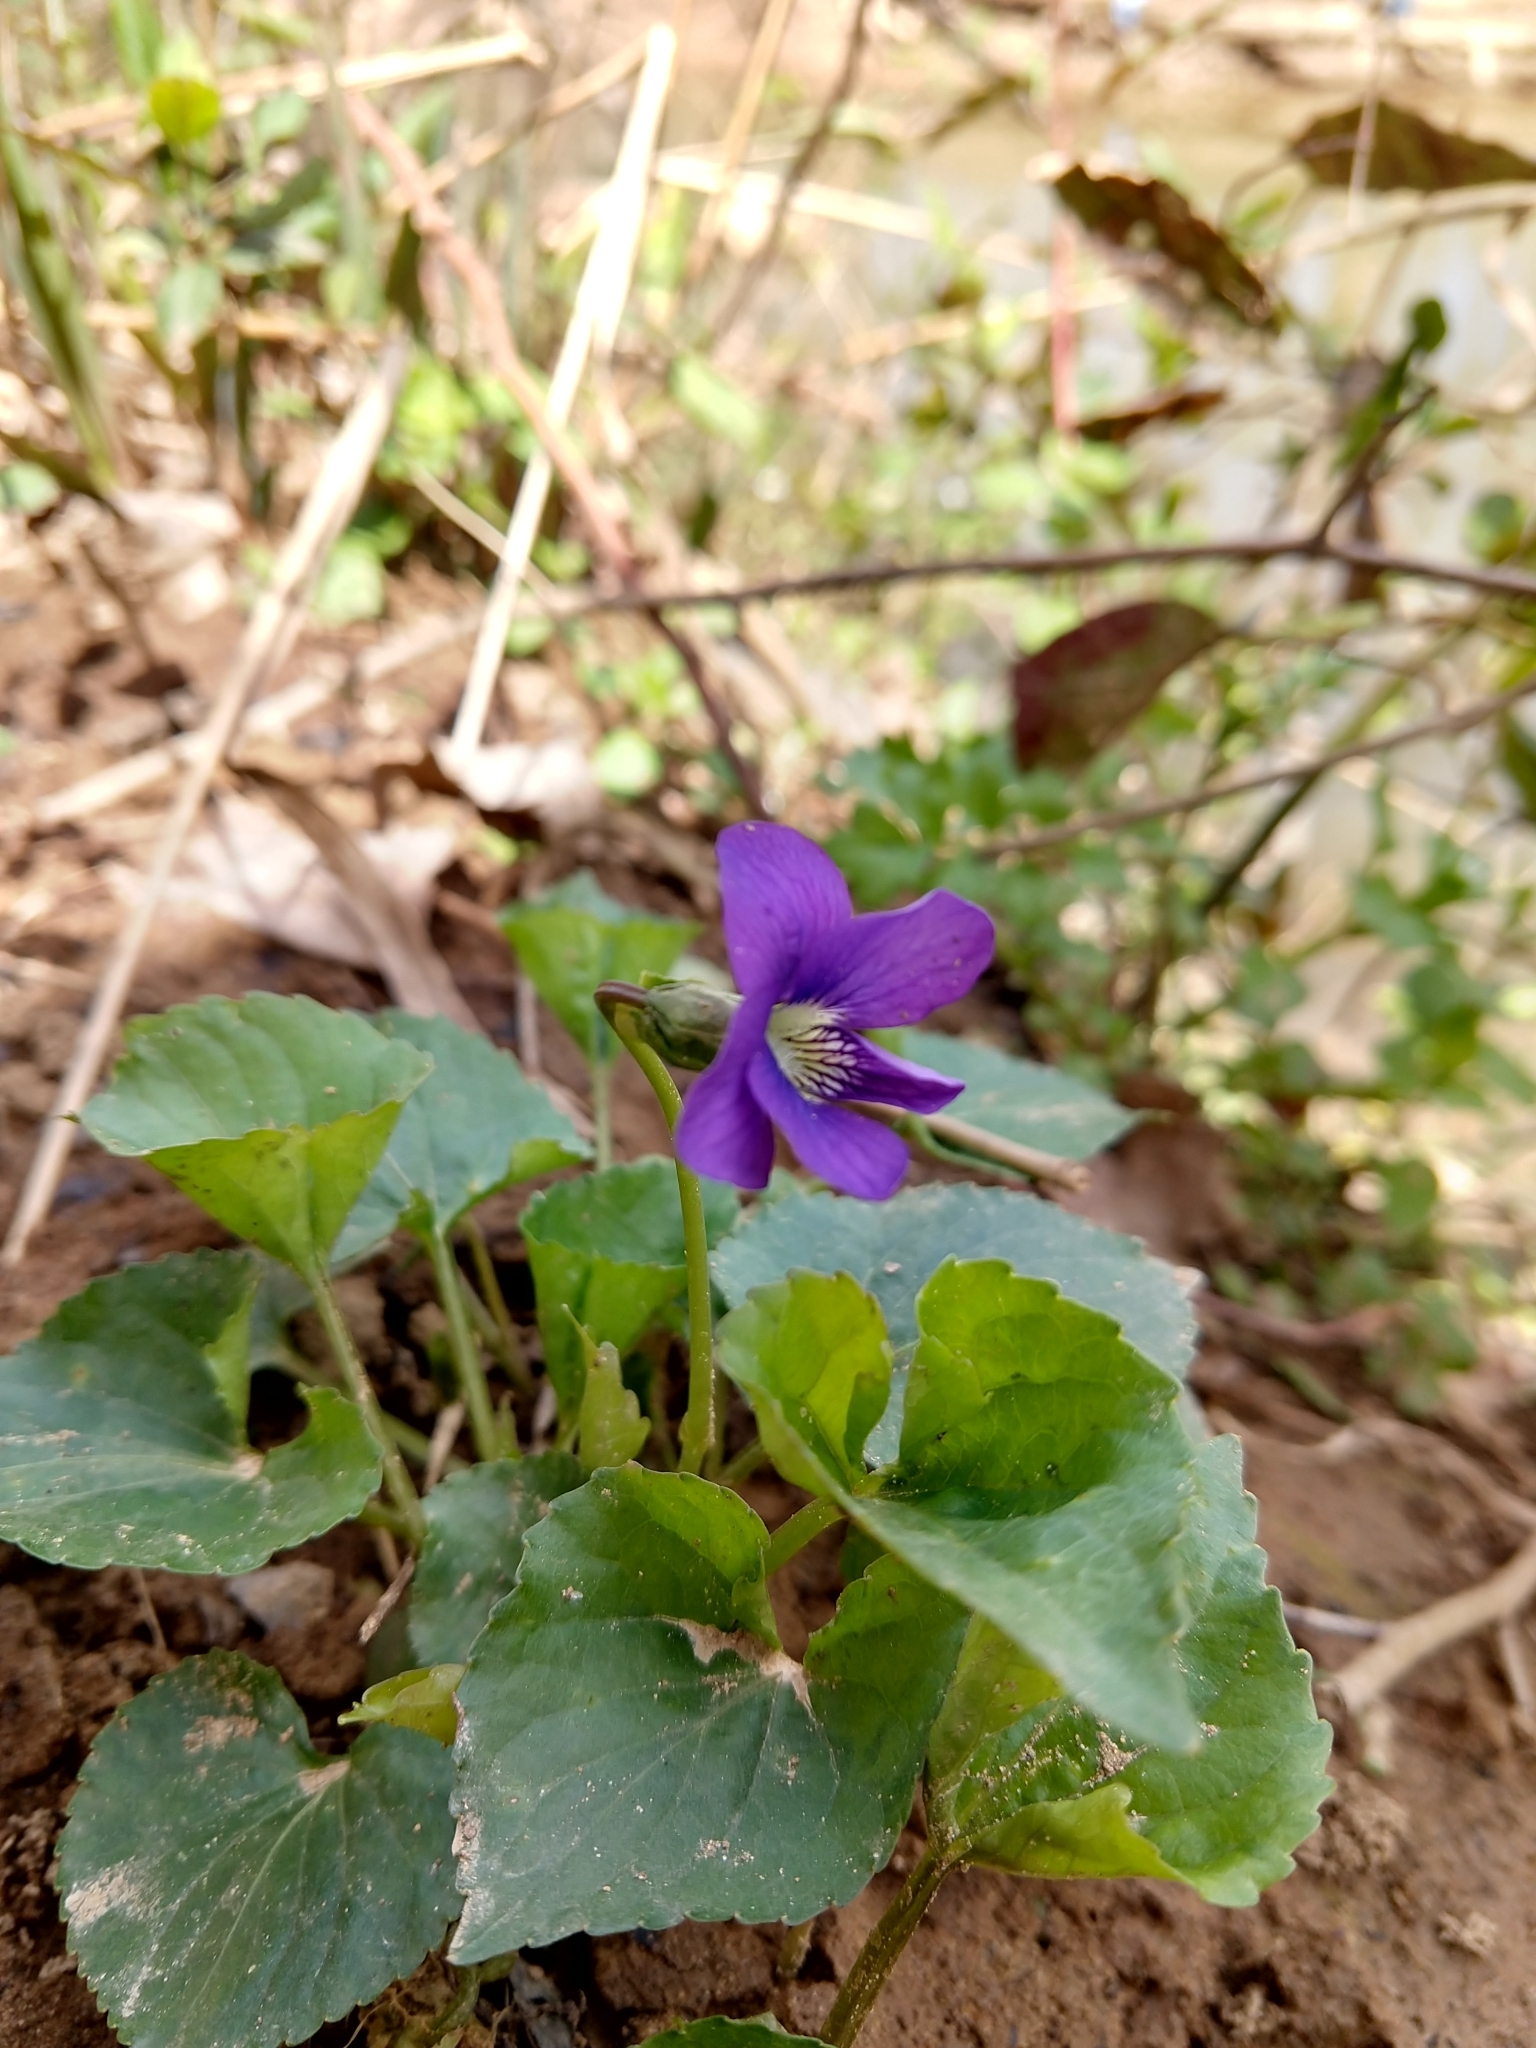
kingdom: Plantae
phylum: Tracheophyta
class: Magnoliopsida
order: Malpighiales
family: Violaceae
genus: Viola
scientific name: Viola sororia
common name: Dooryard violet
